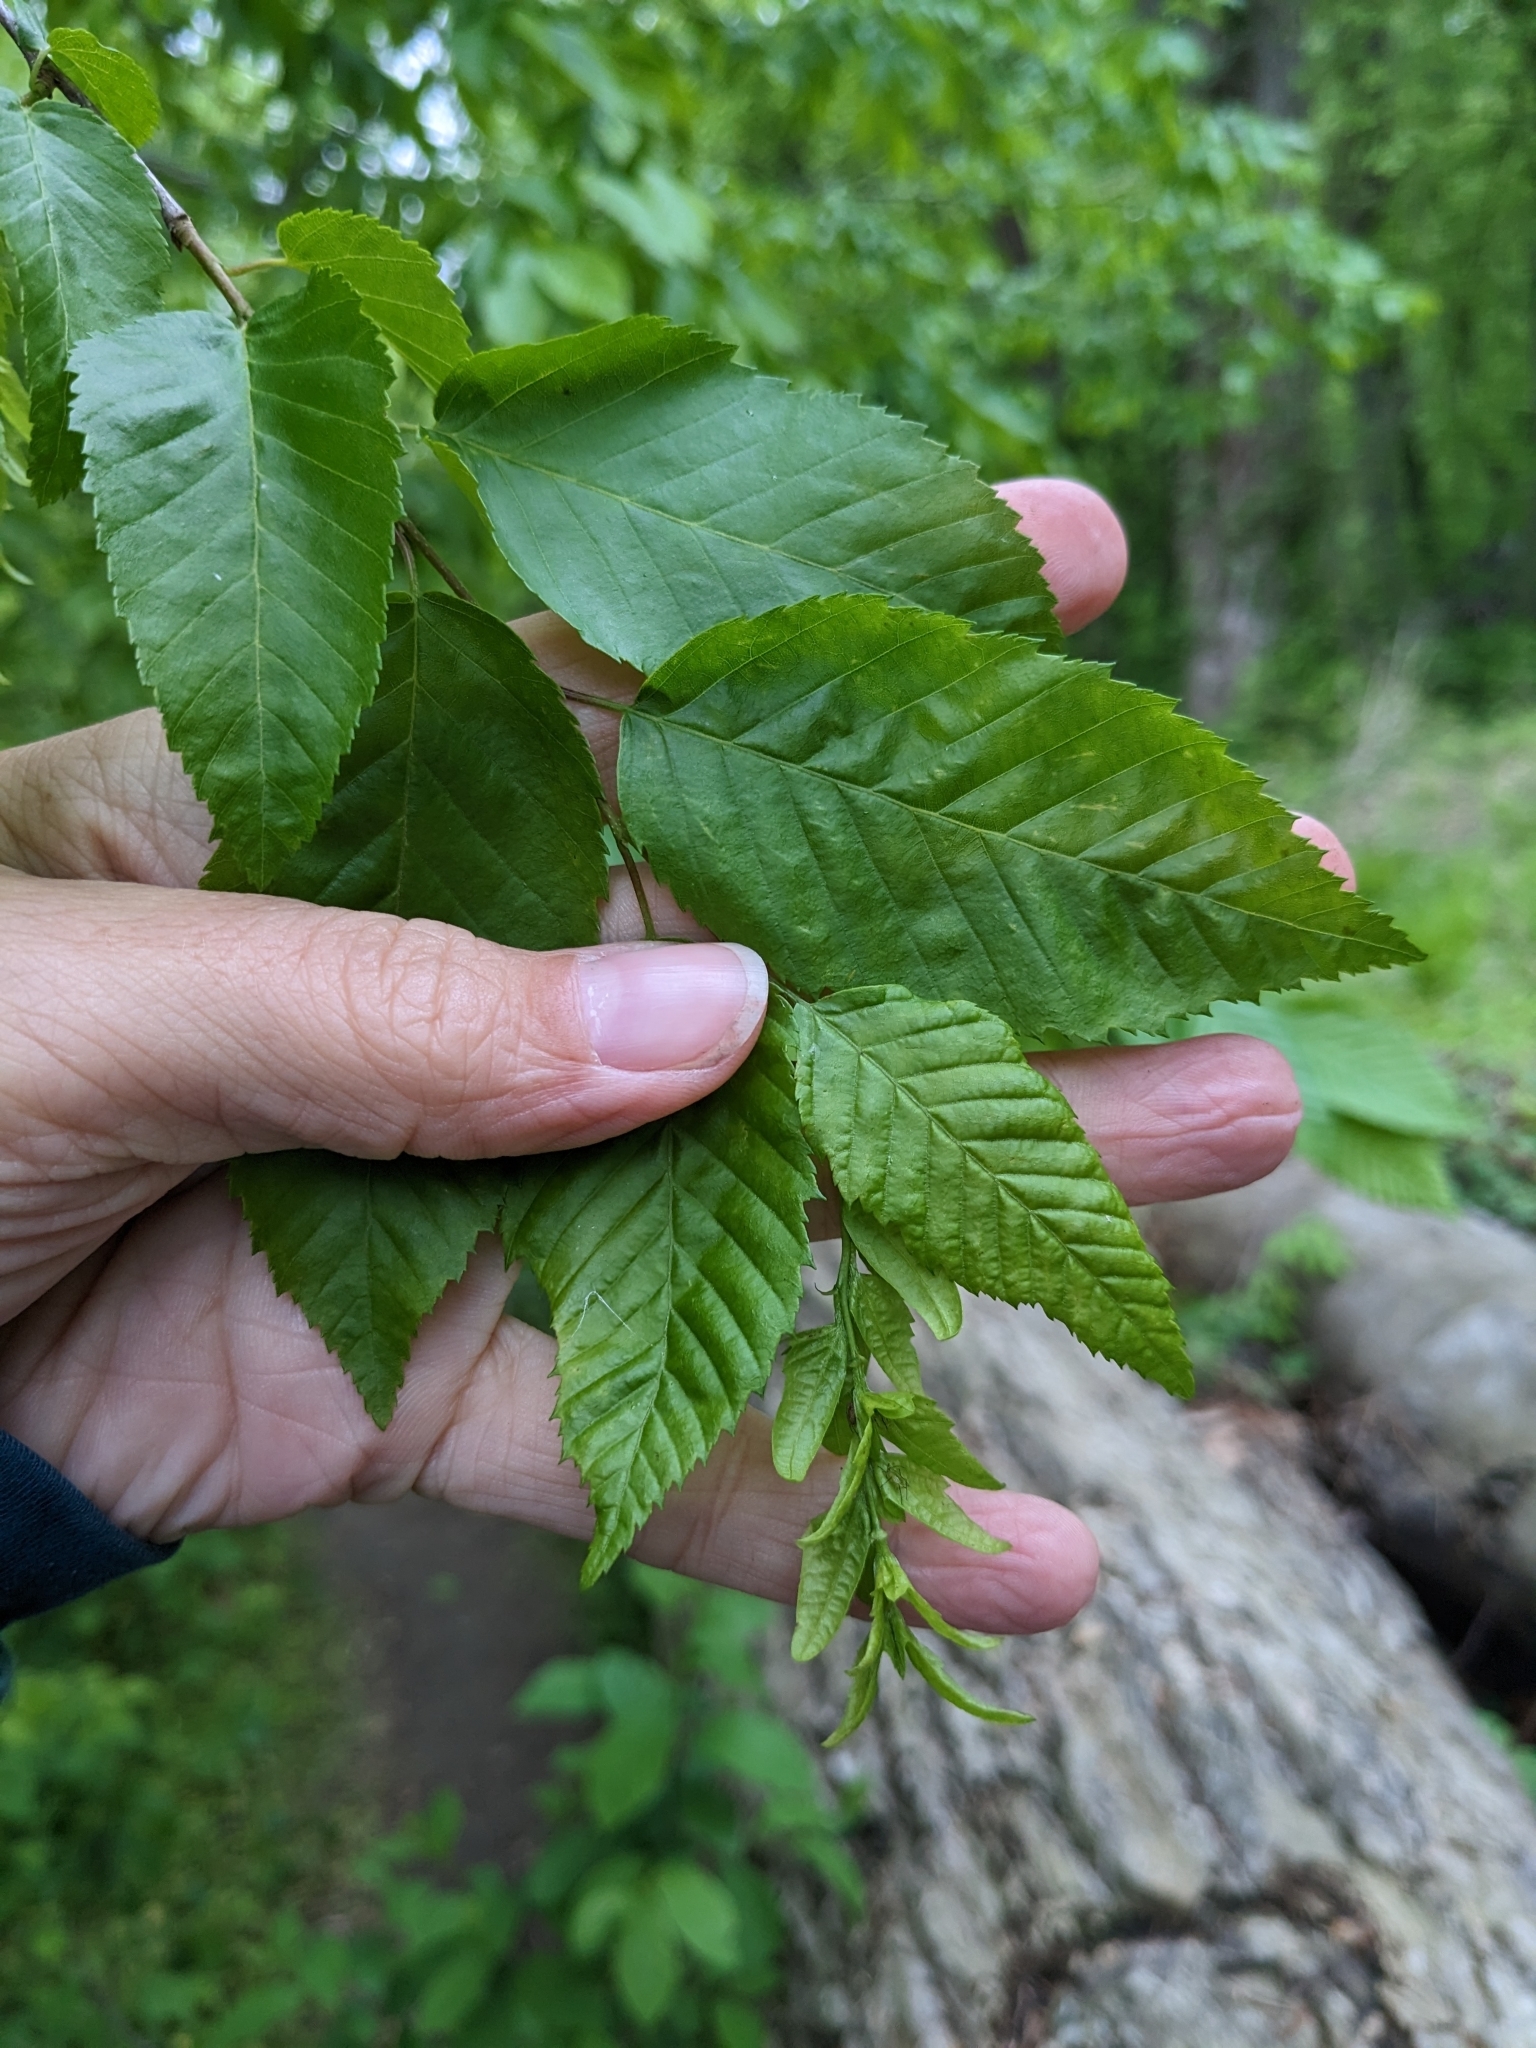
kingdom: Plantae
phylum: Tracheophyta
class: Magnoliopsida
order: Fagales
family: Betulaceae
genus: Carpinus
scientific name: Carpinus caroliniana
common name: American hornbeam
